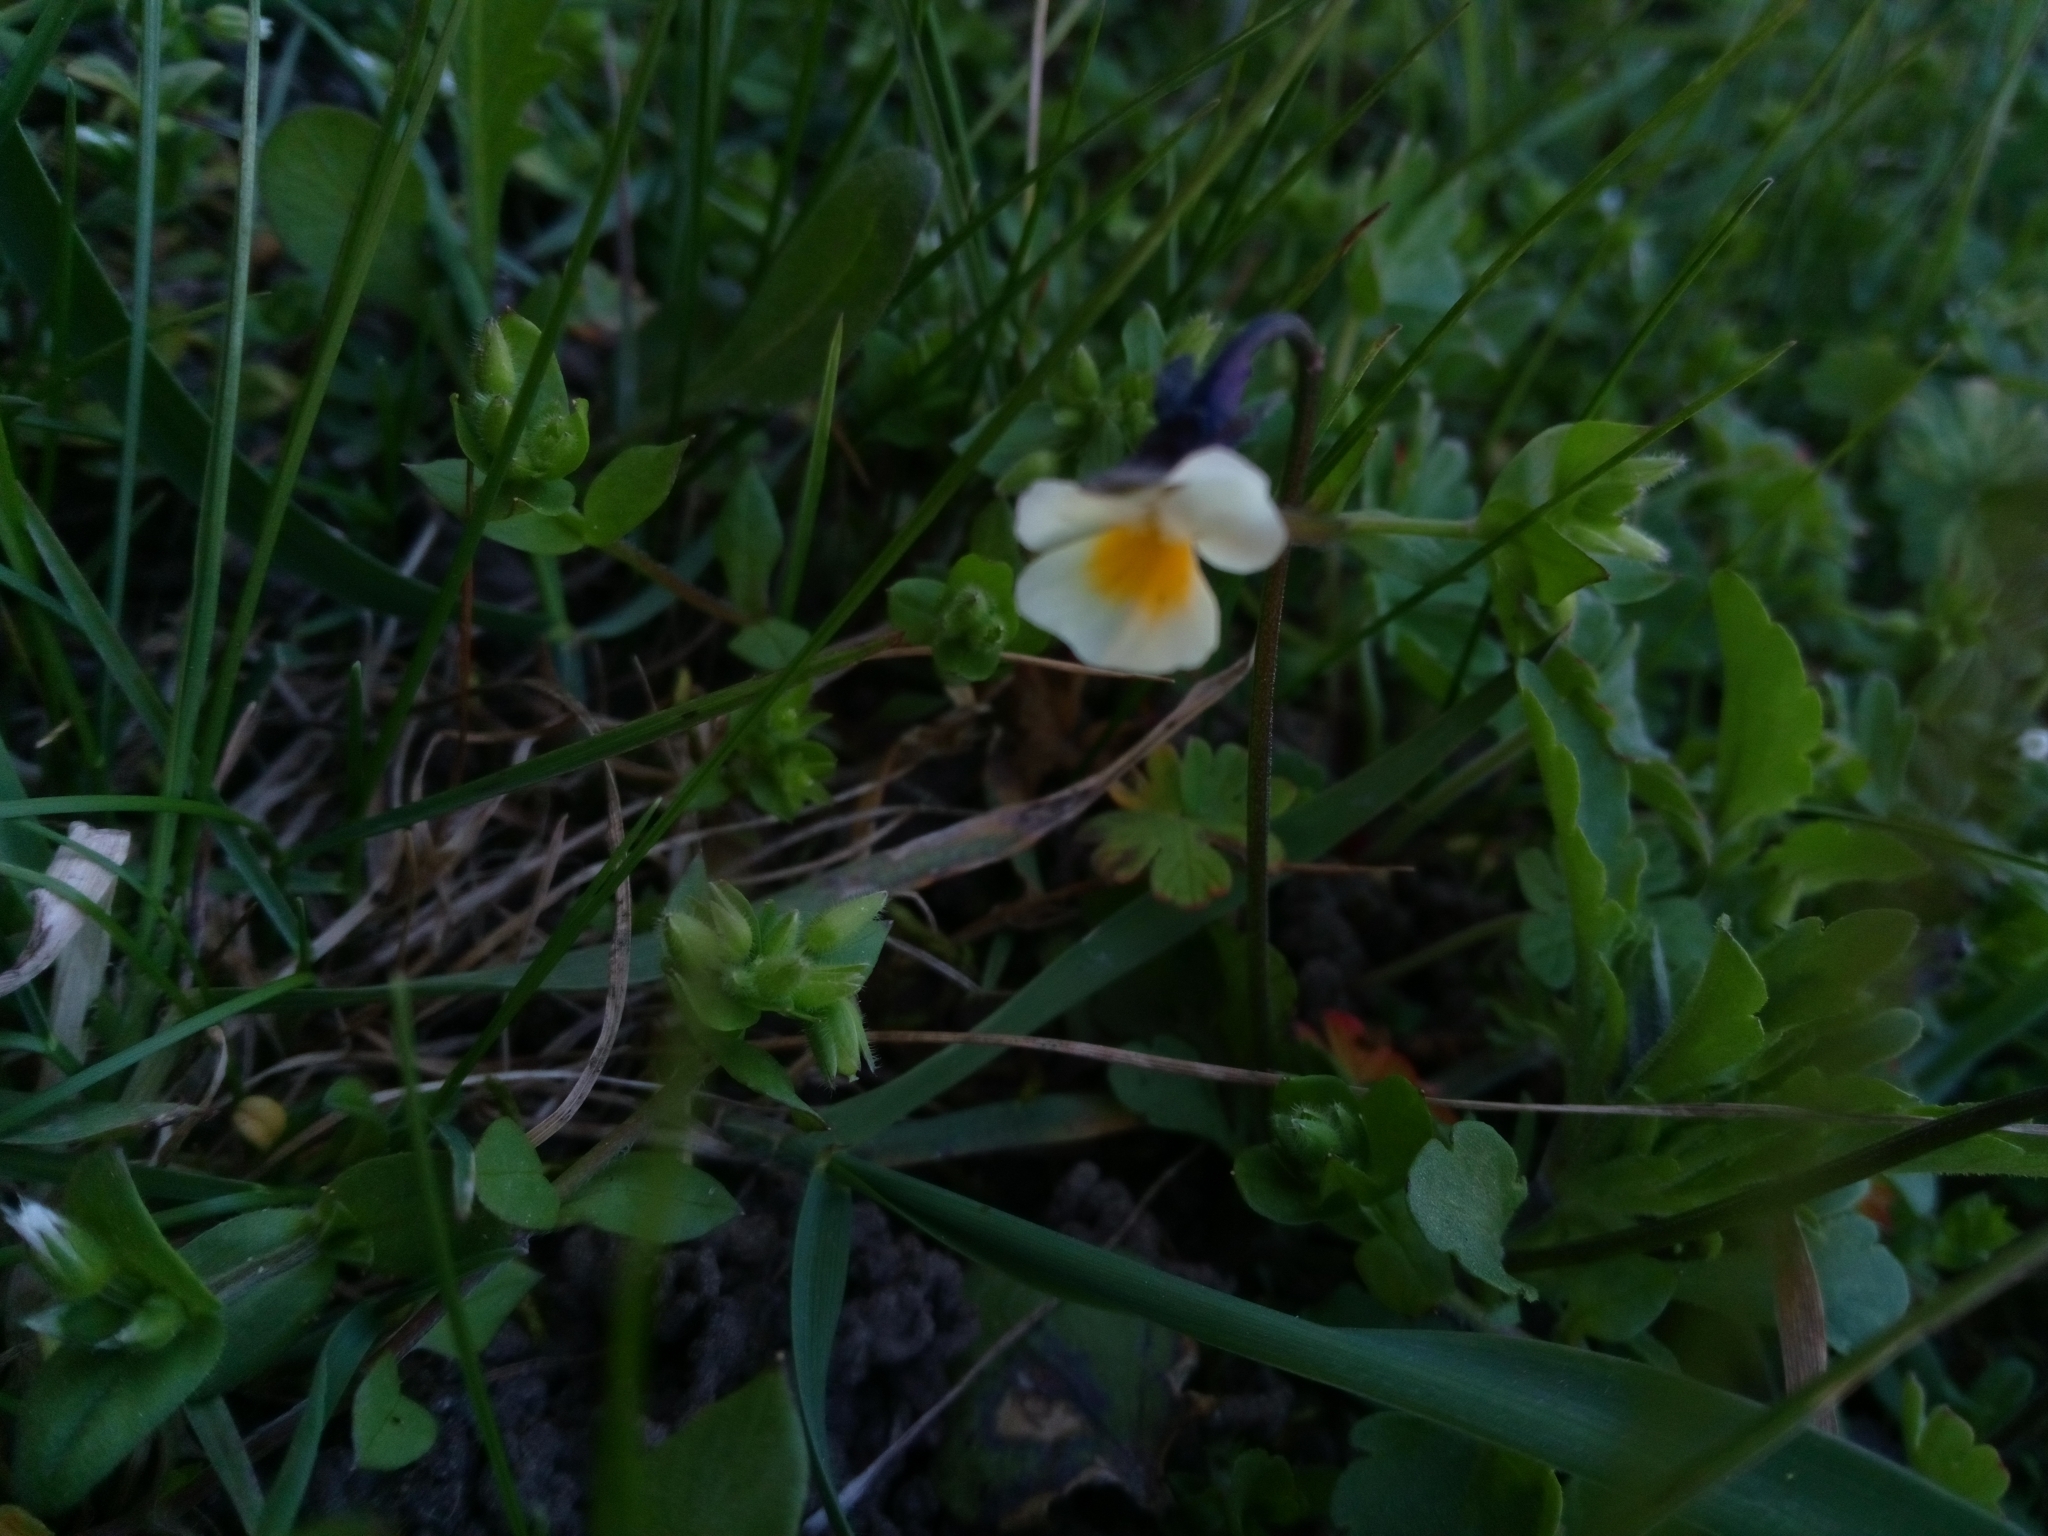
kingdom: Plantae
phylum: Tracheophyta
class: Magnoliopsida
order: Malpighiales
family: Violaceae
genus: Viola
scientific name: Viola arvensis
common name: Field pansy
